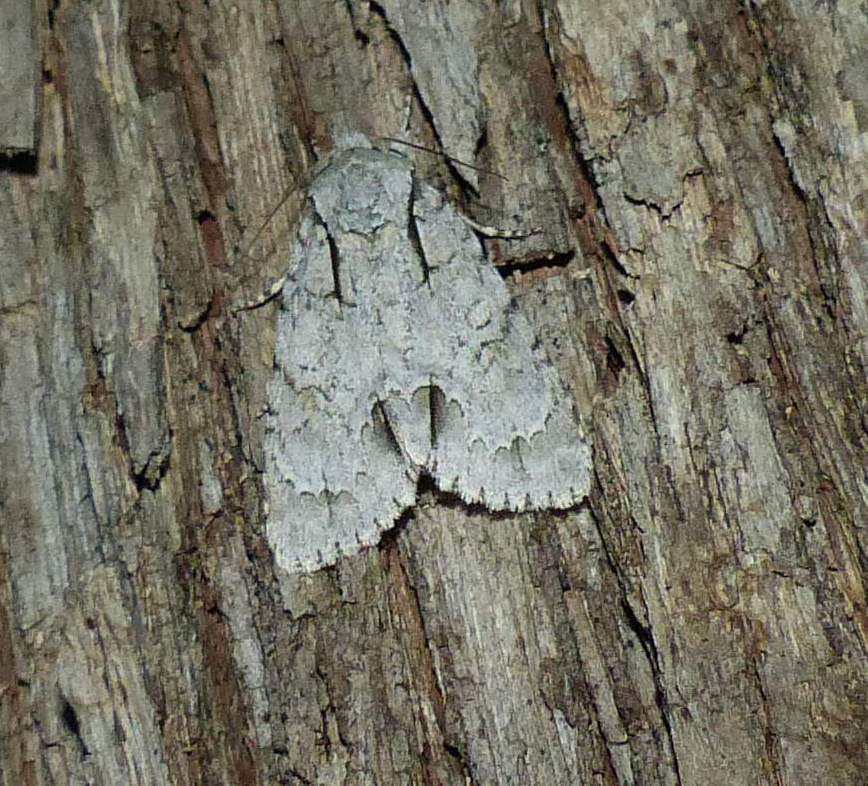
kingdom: Animalia
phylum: Arthropoda
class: Insecta
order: Lepidoptera
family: Noctuidae
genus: Acronicta
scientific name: Acronicta morula
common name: Ochre dagger
